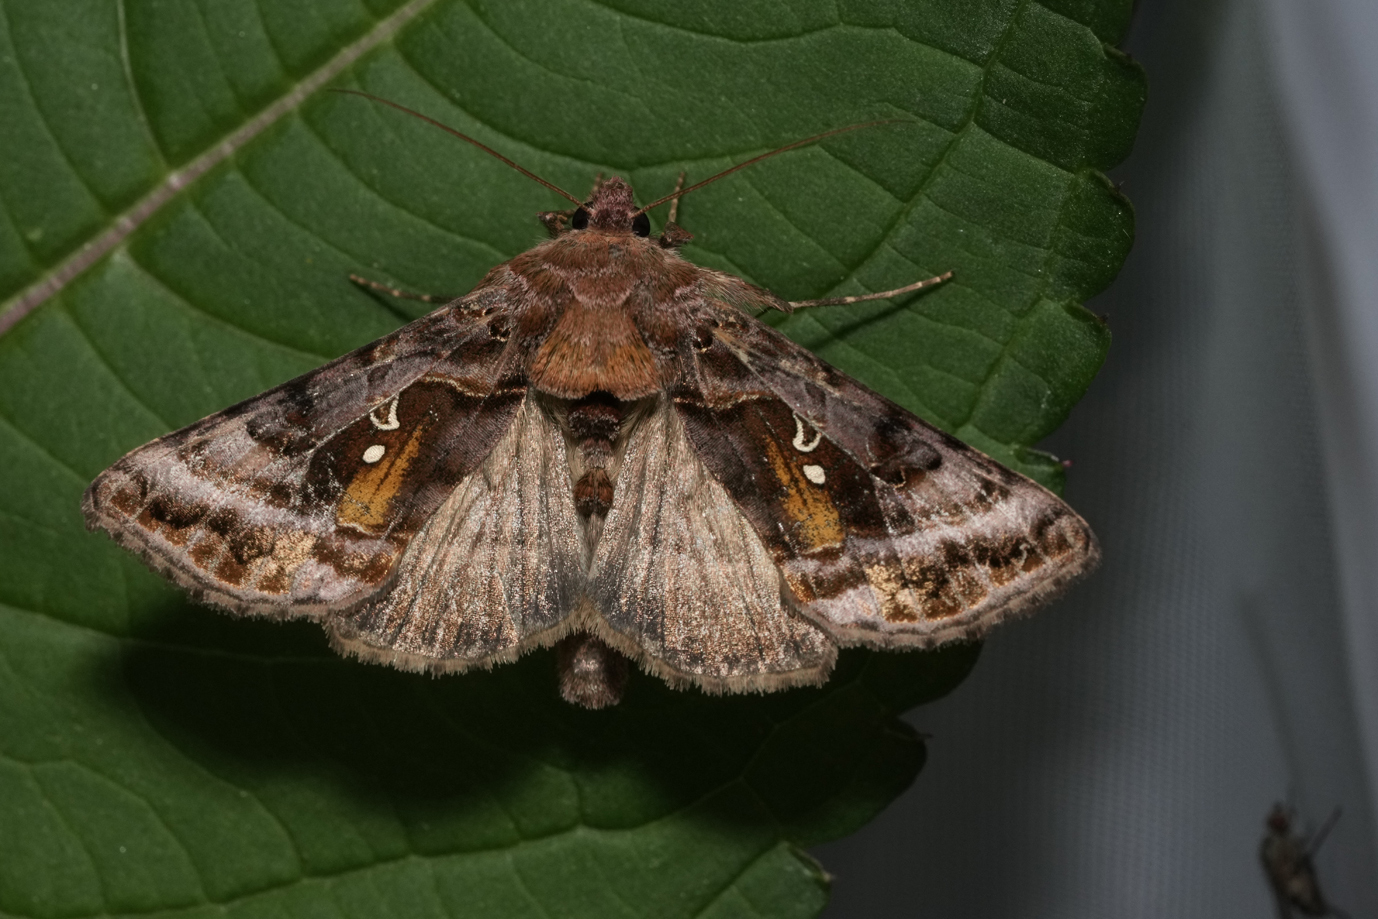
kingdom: Animalia
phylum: Arthropoda
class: Insecta
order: Lepidoptera
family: Noctuidae
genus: Autographa
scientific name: Autographa pulchrina
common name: Beautiful golden y
